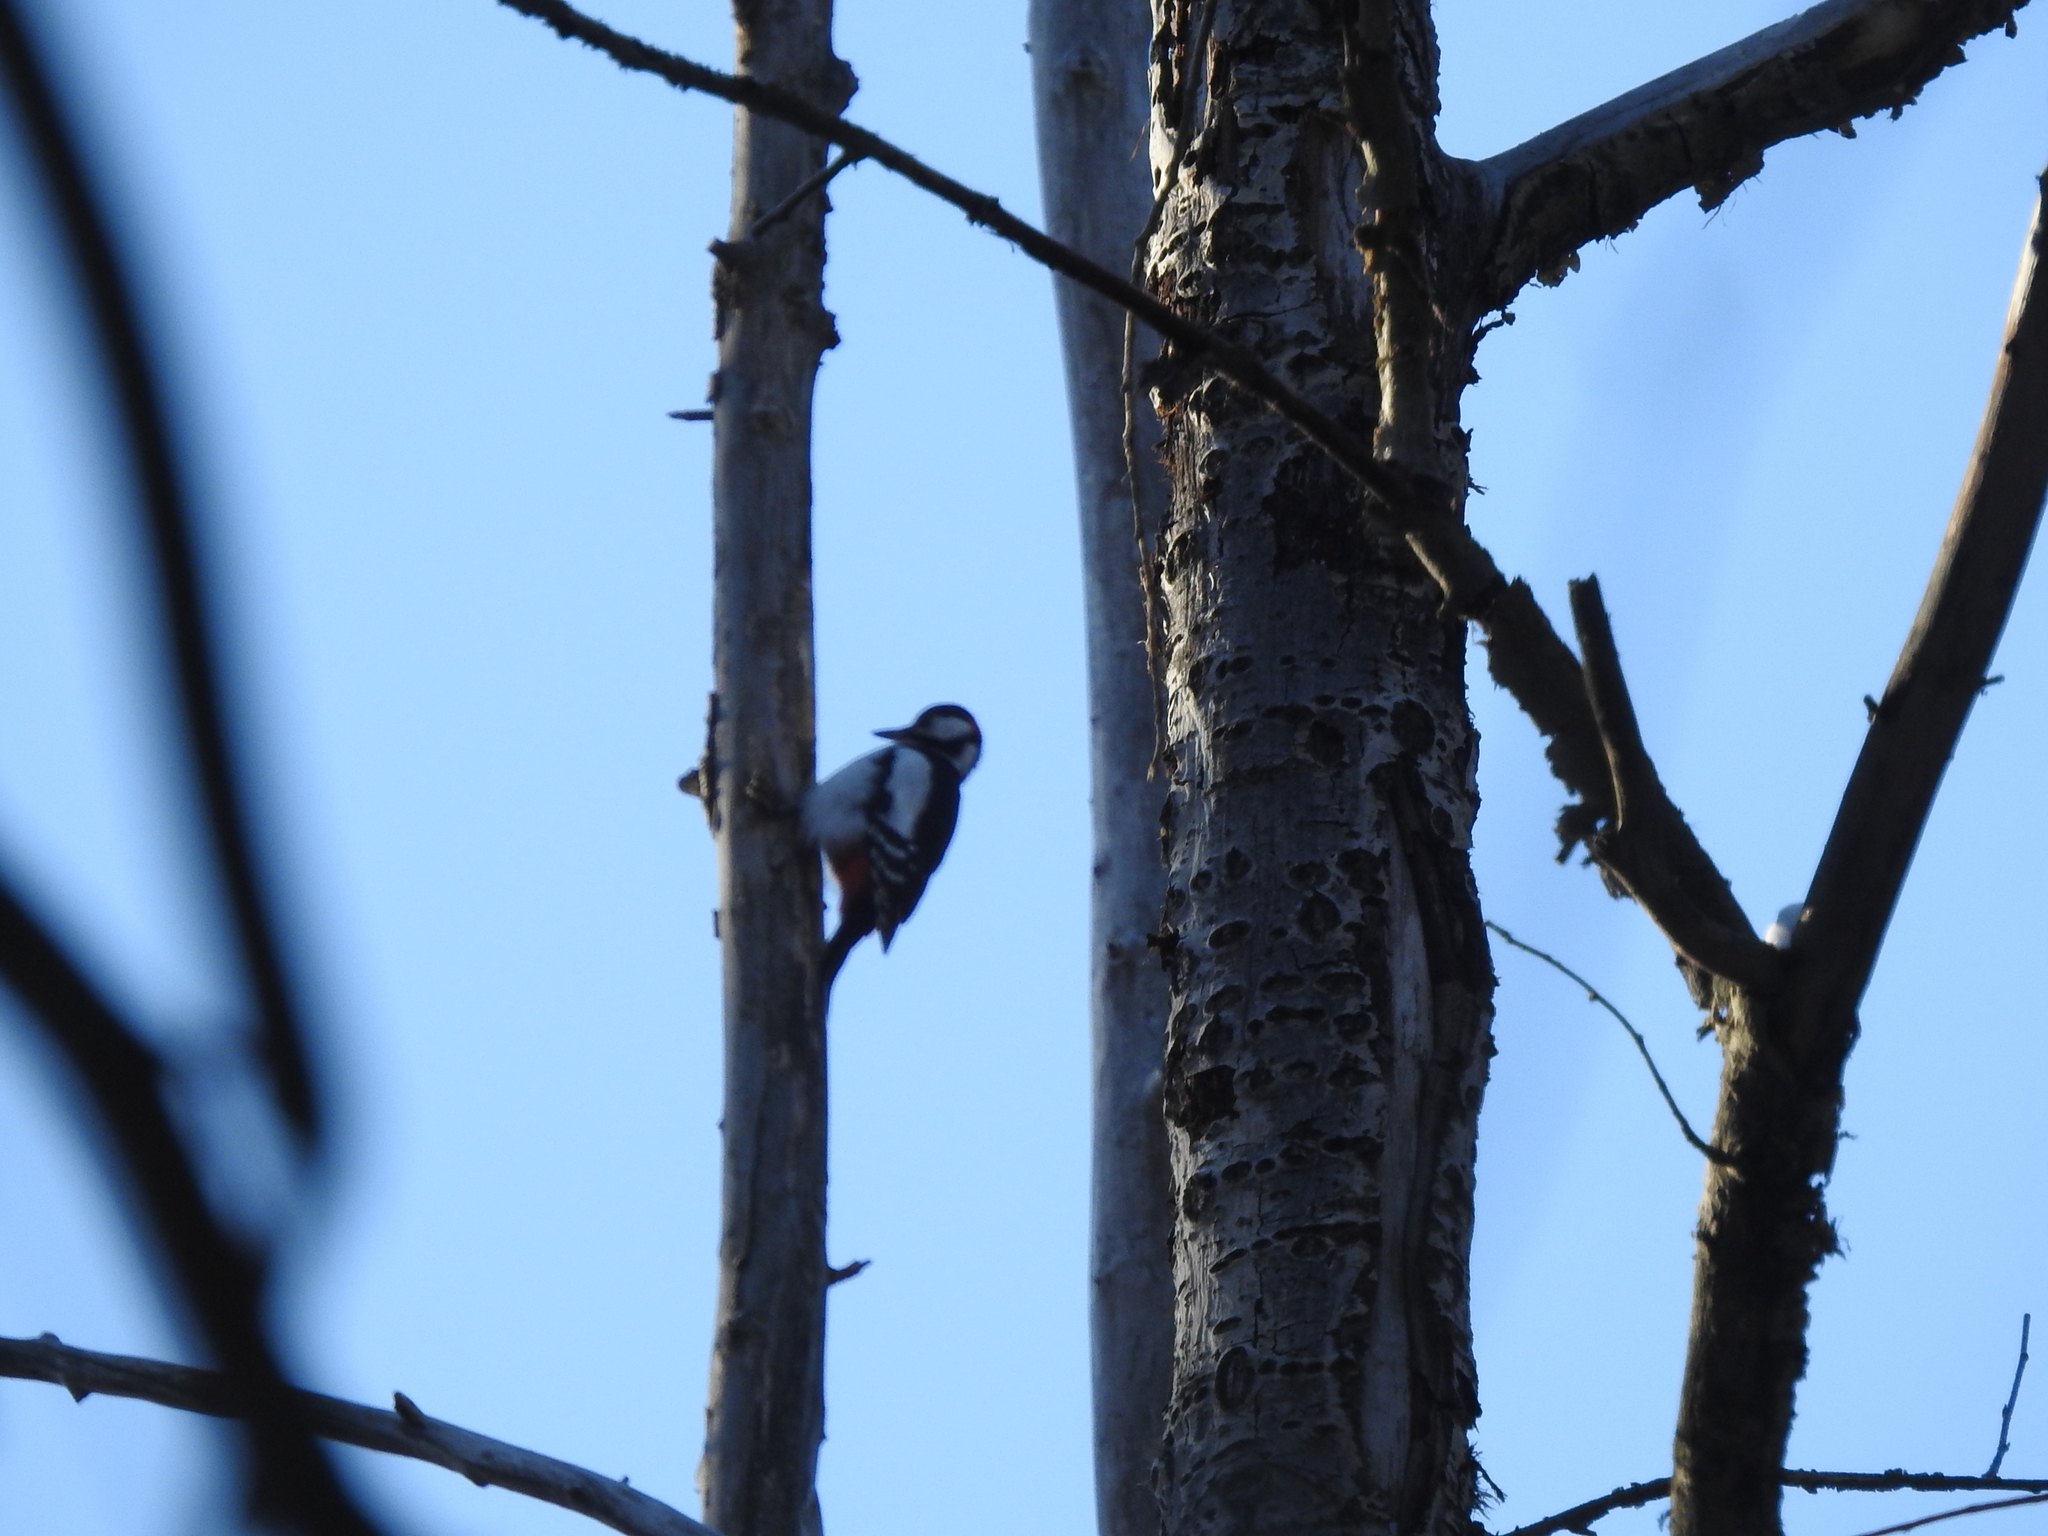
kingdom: Animalia
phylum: Chordata
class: Aves
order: Piciformes
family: Picidae
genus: Dendrocopos
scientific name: Dendrocopos major
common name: Great spotted woodpecker
